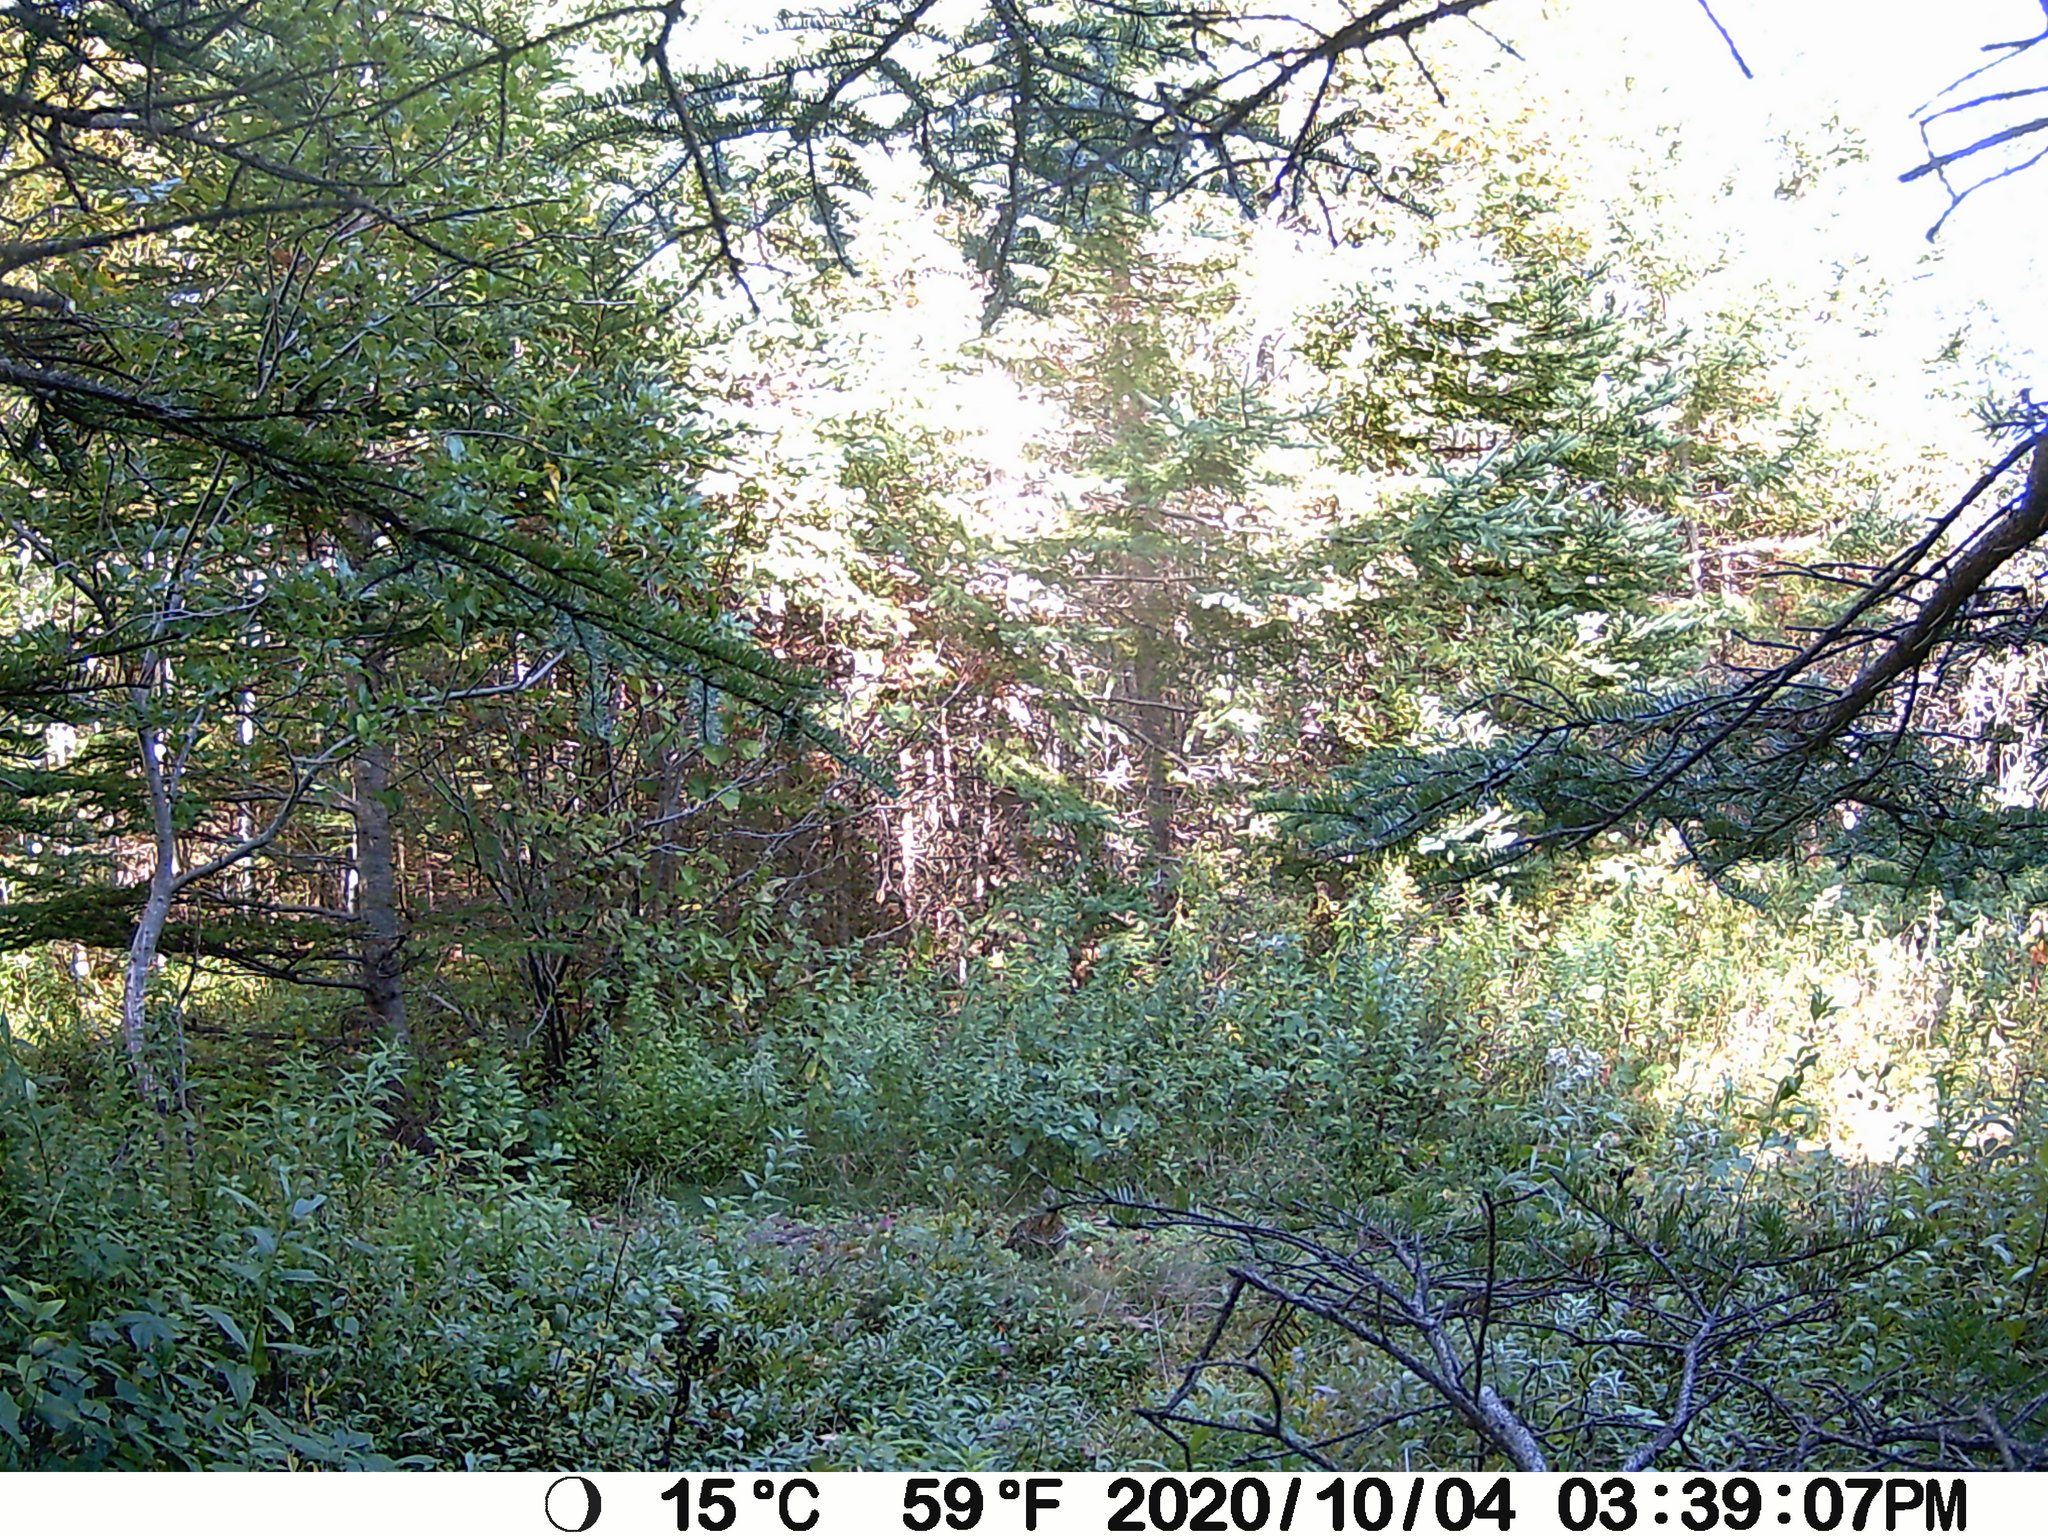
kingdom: Animalia
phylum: Chordata
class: Aves
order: Galliformes
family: Phasianidae
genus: Bonasa
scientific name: Bonasa umbellus
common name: Ruffed grouse
